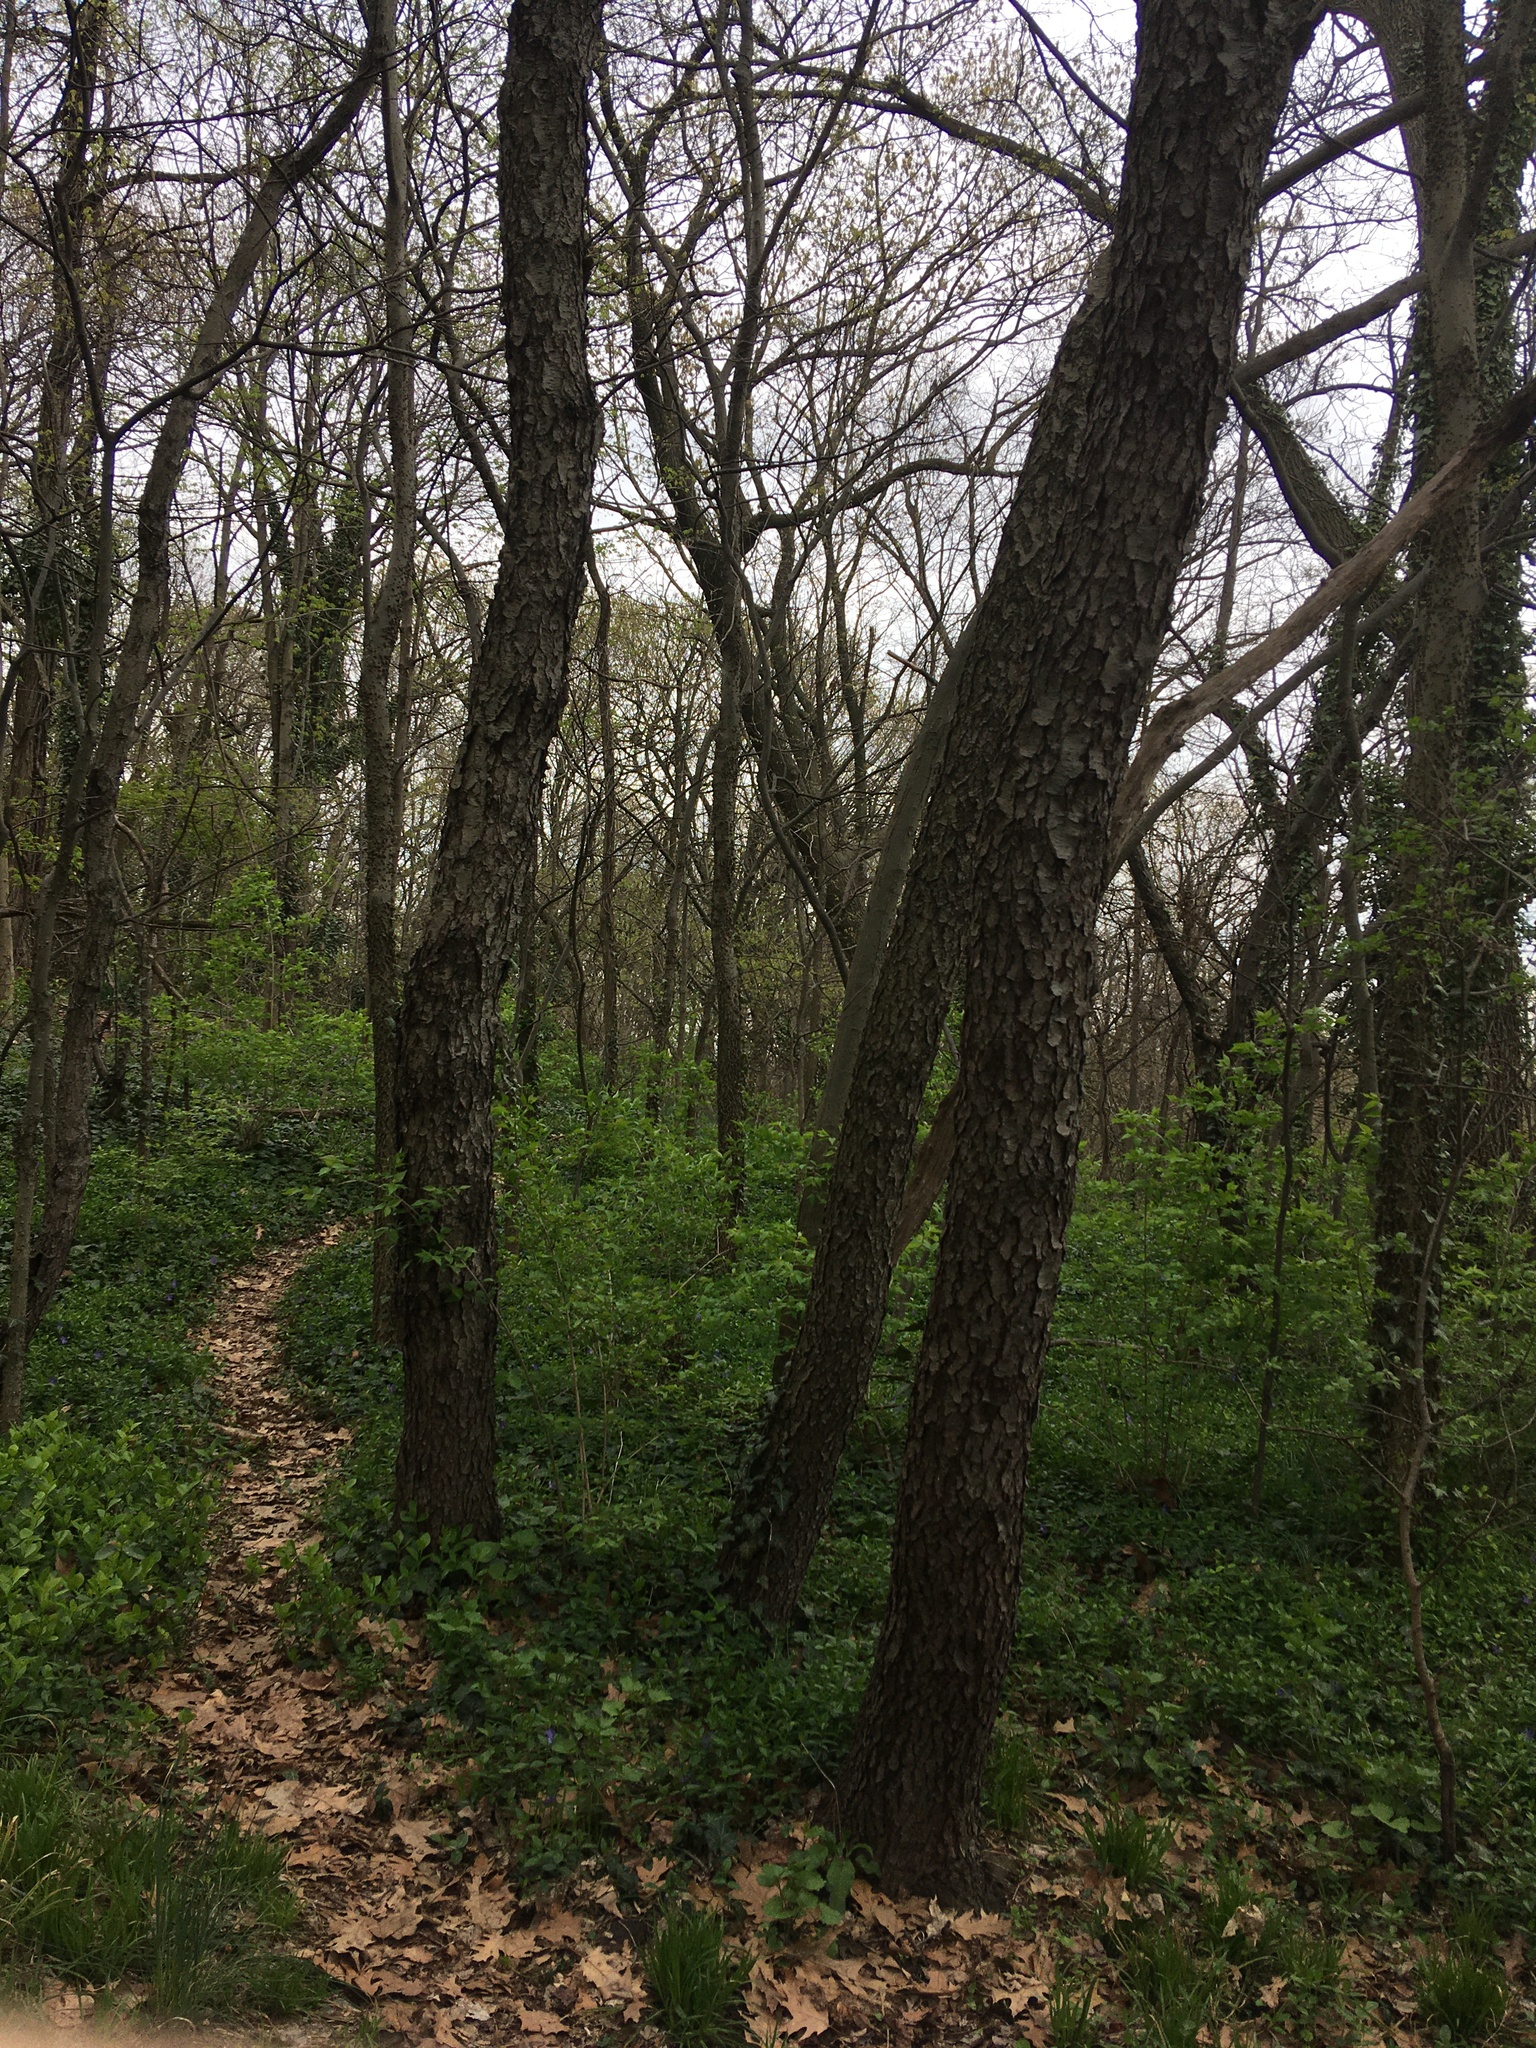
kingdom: Plantae
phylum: Tracheophyta
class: Magnoliopsida
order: Rosales
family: Rosaceae
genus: Prunus
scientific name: Prunus serotina
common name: Black cherry
